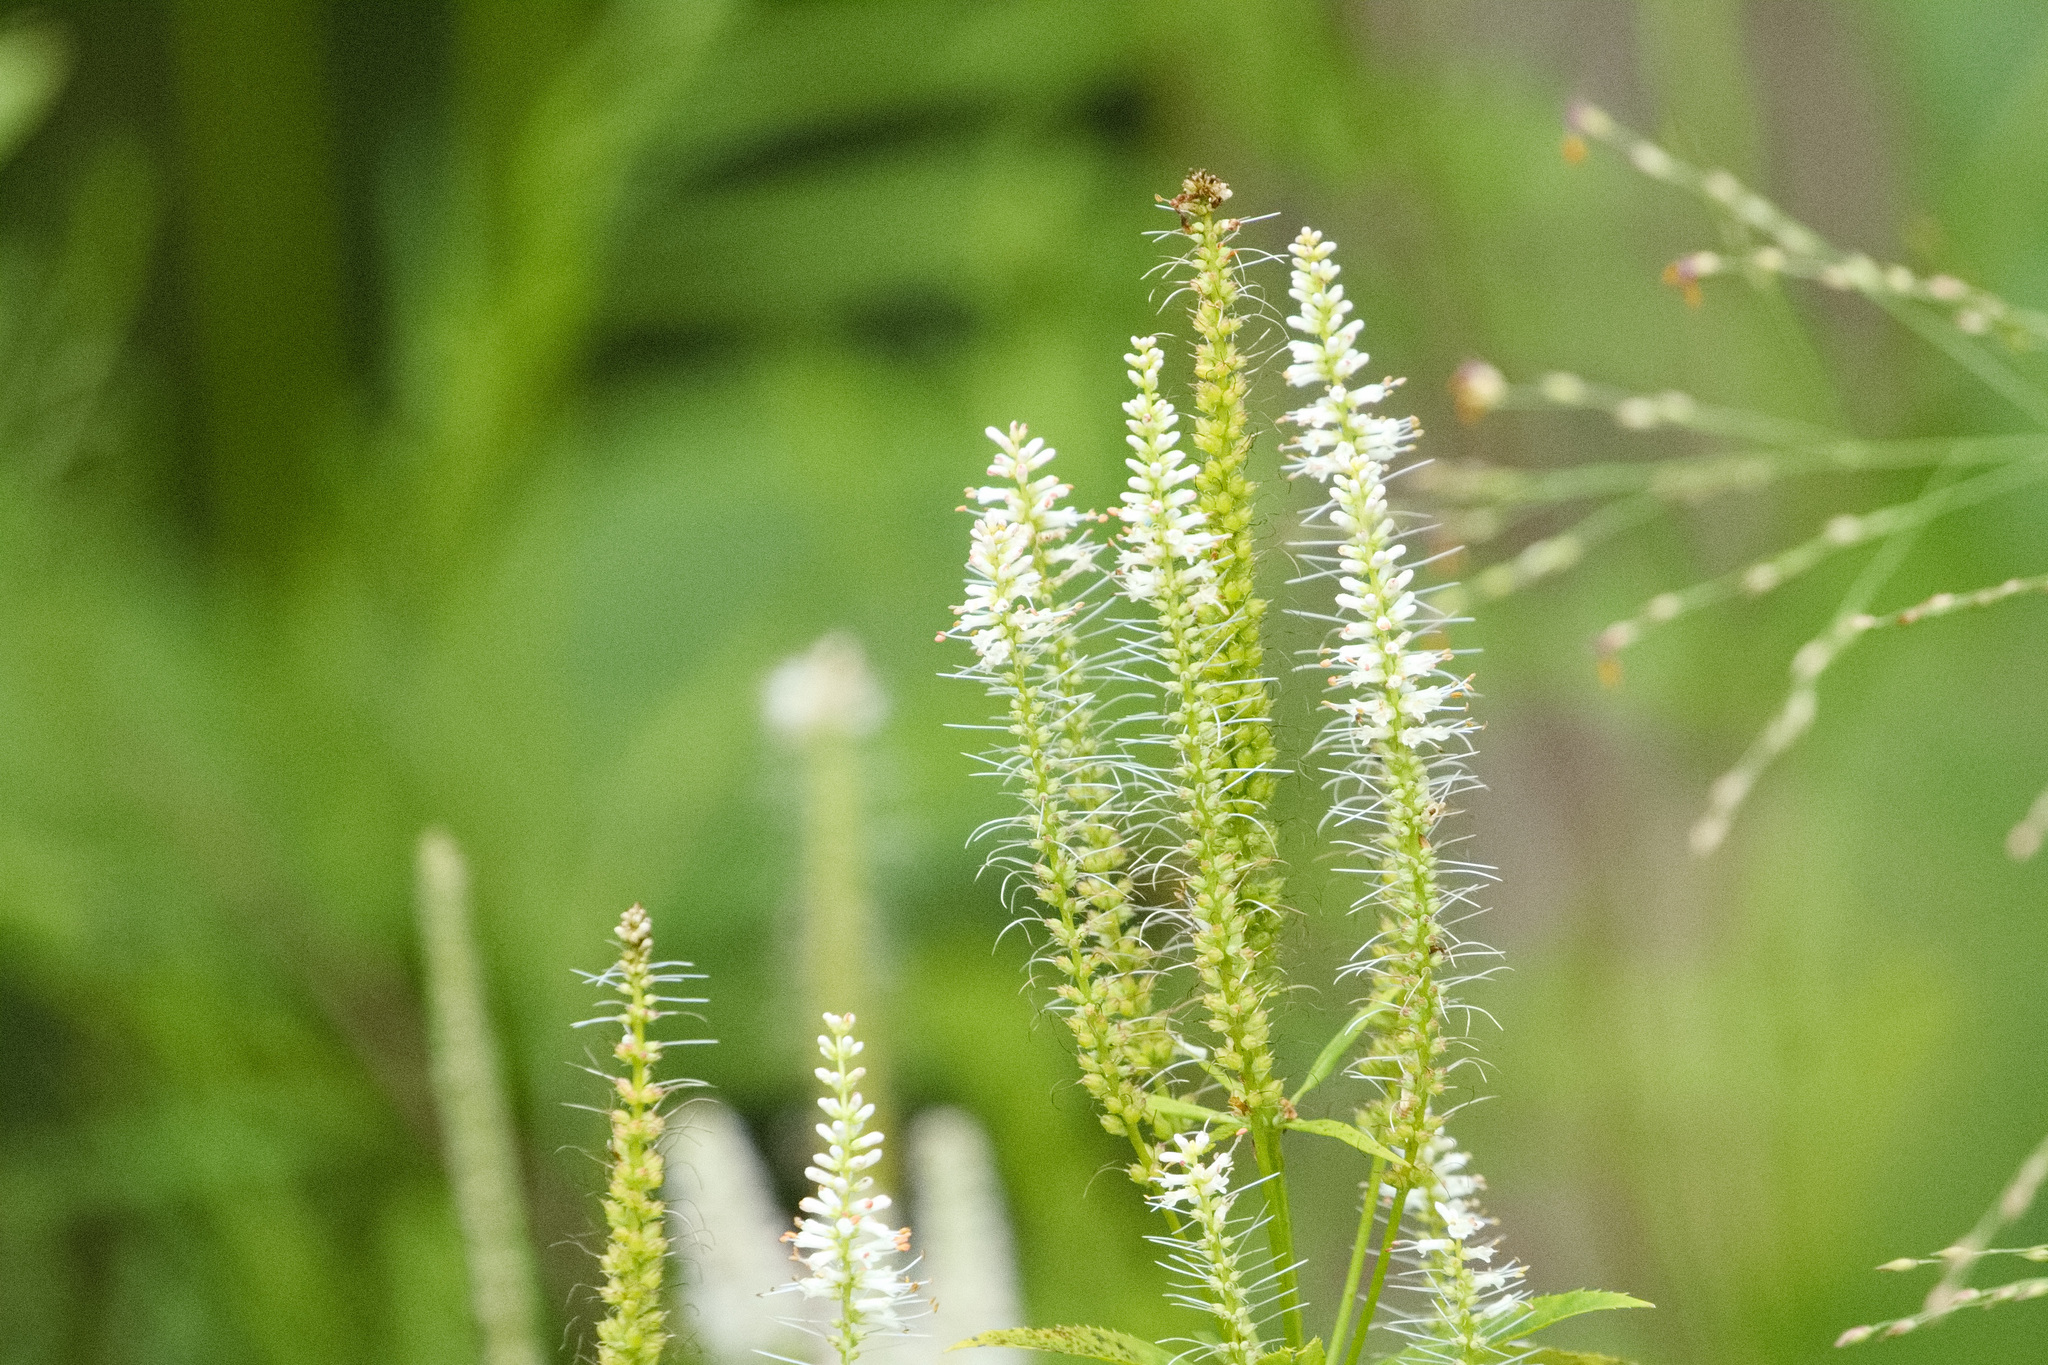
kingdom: Plantae
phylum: Tracheophyta
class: Magnoliopsida
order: Lamiales
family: Plantaginaceae
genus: Veronicastrum
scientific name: Veronicastrum virginicum
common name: Blackroot
